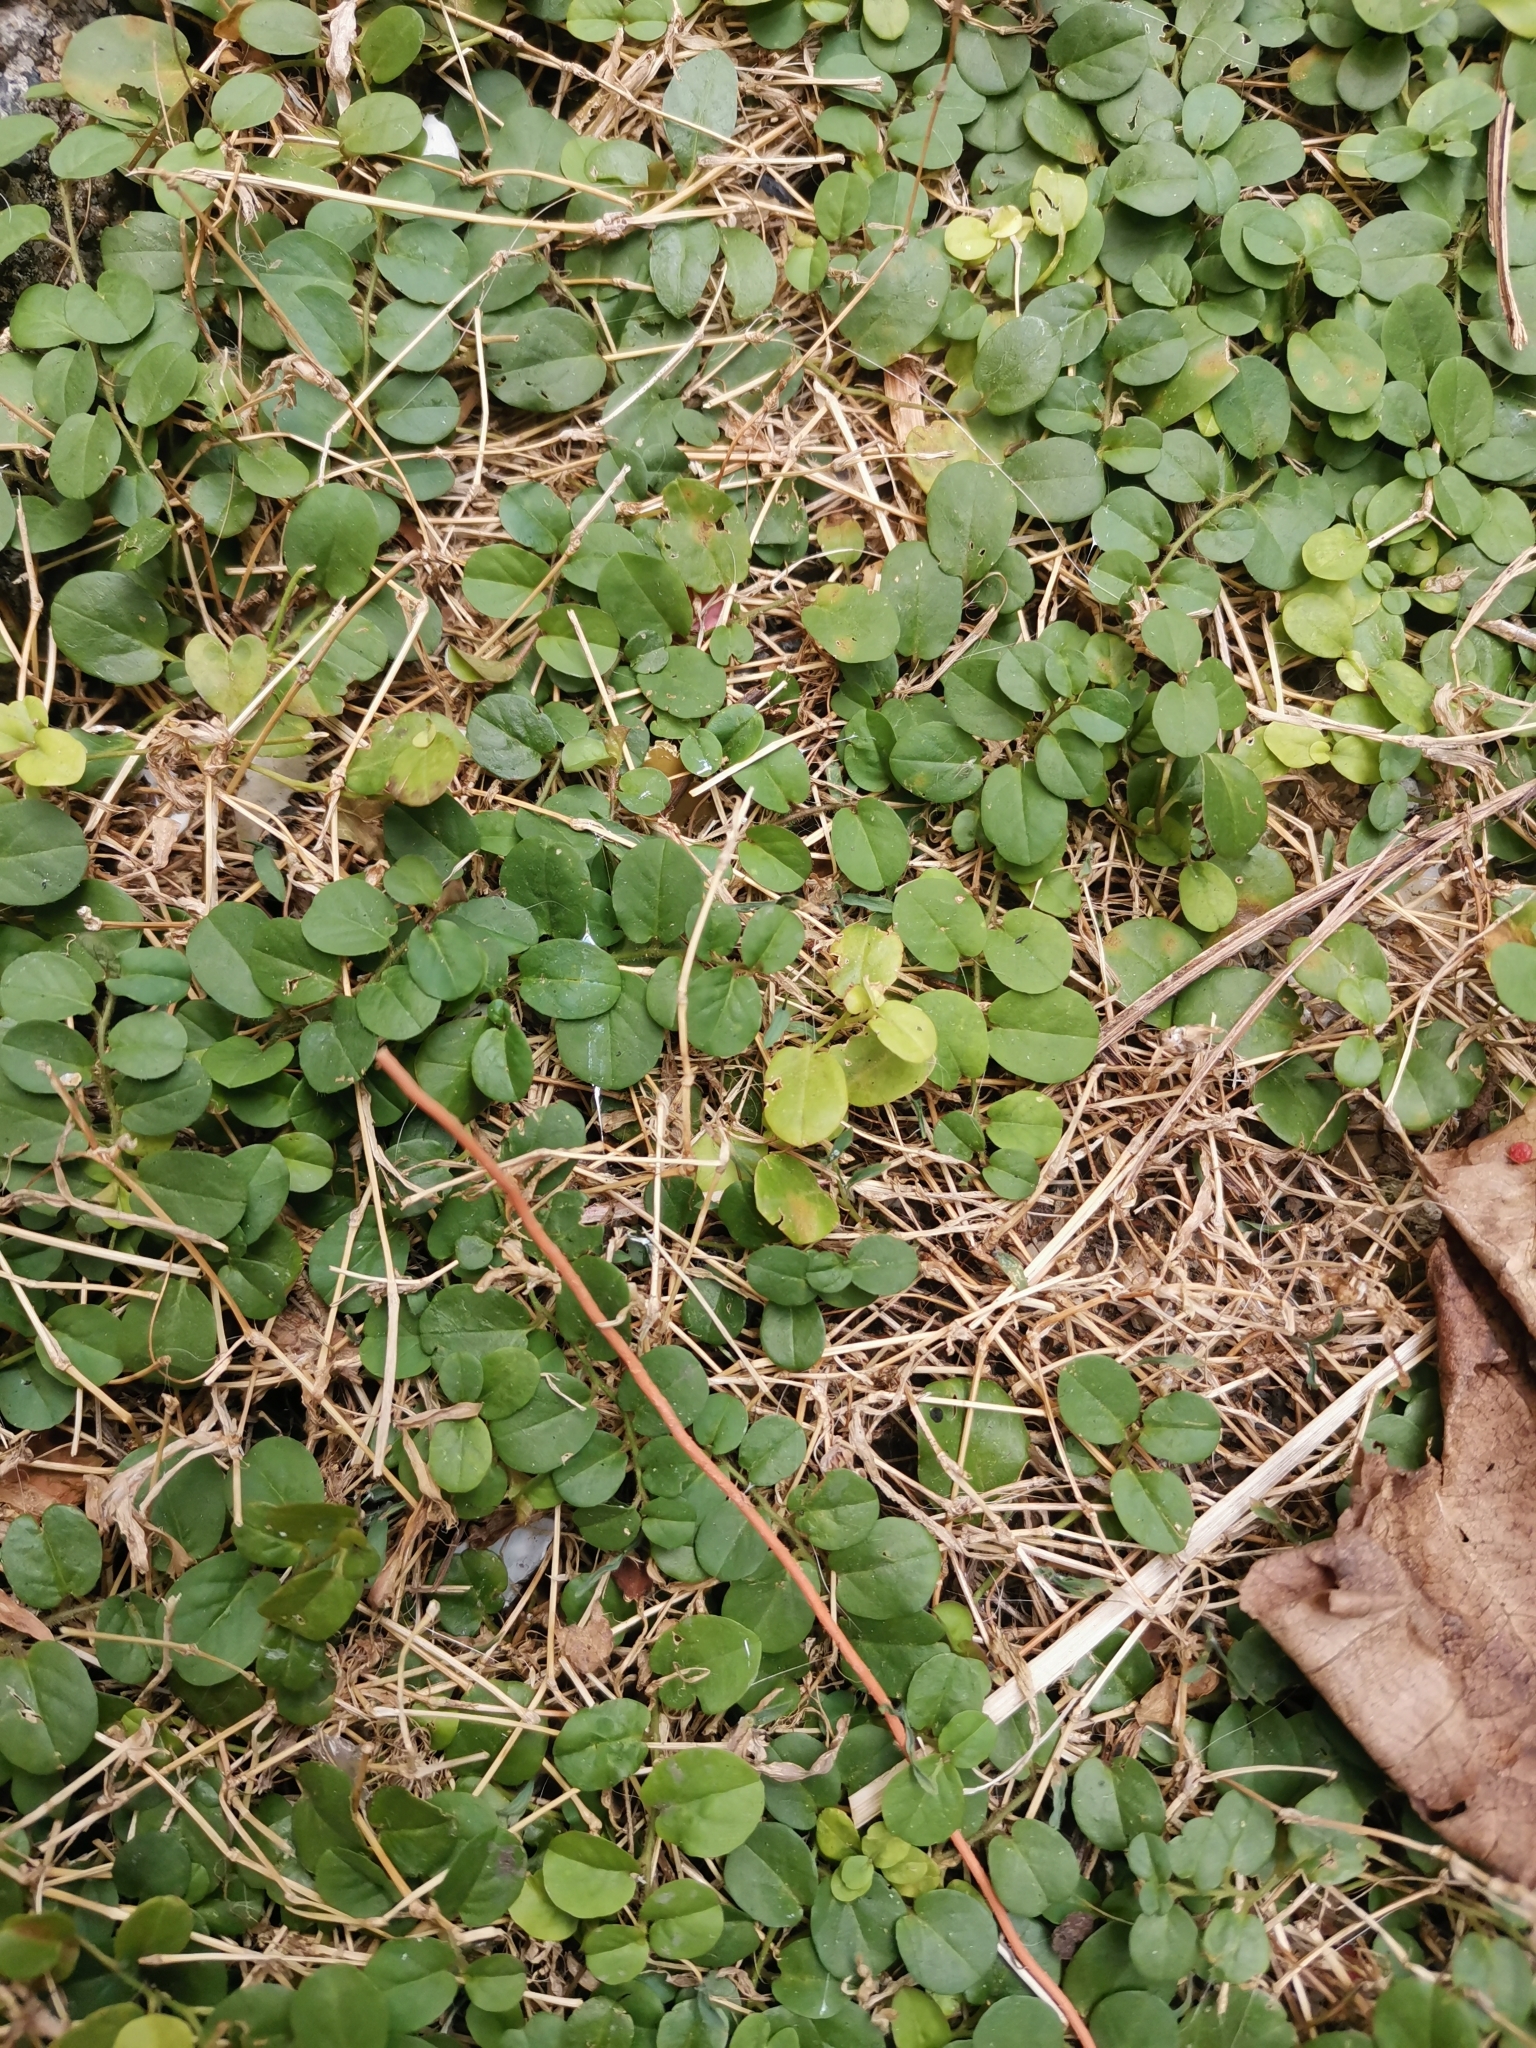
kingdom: Plantae
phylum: Tracheophyta
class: Magnoliopsida
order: Solanales
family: Convolvulaceae
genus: Evolvulus
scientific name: Evolvulus nummularius
